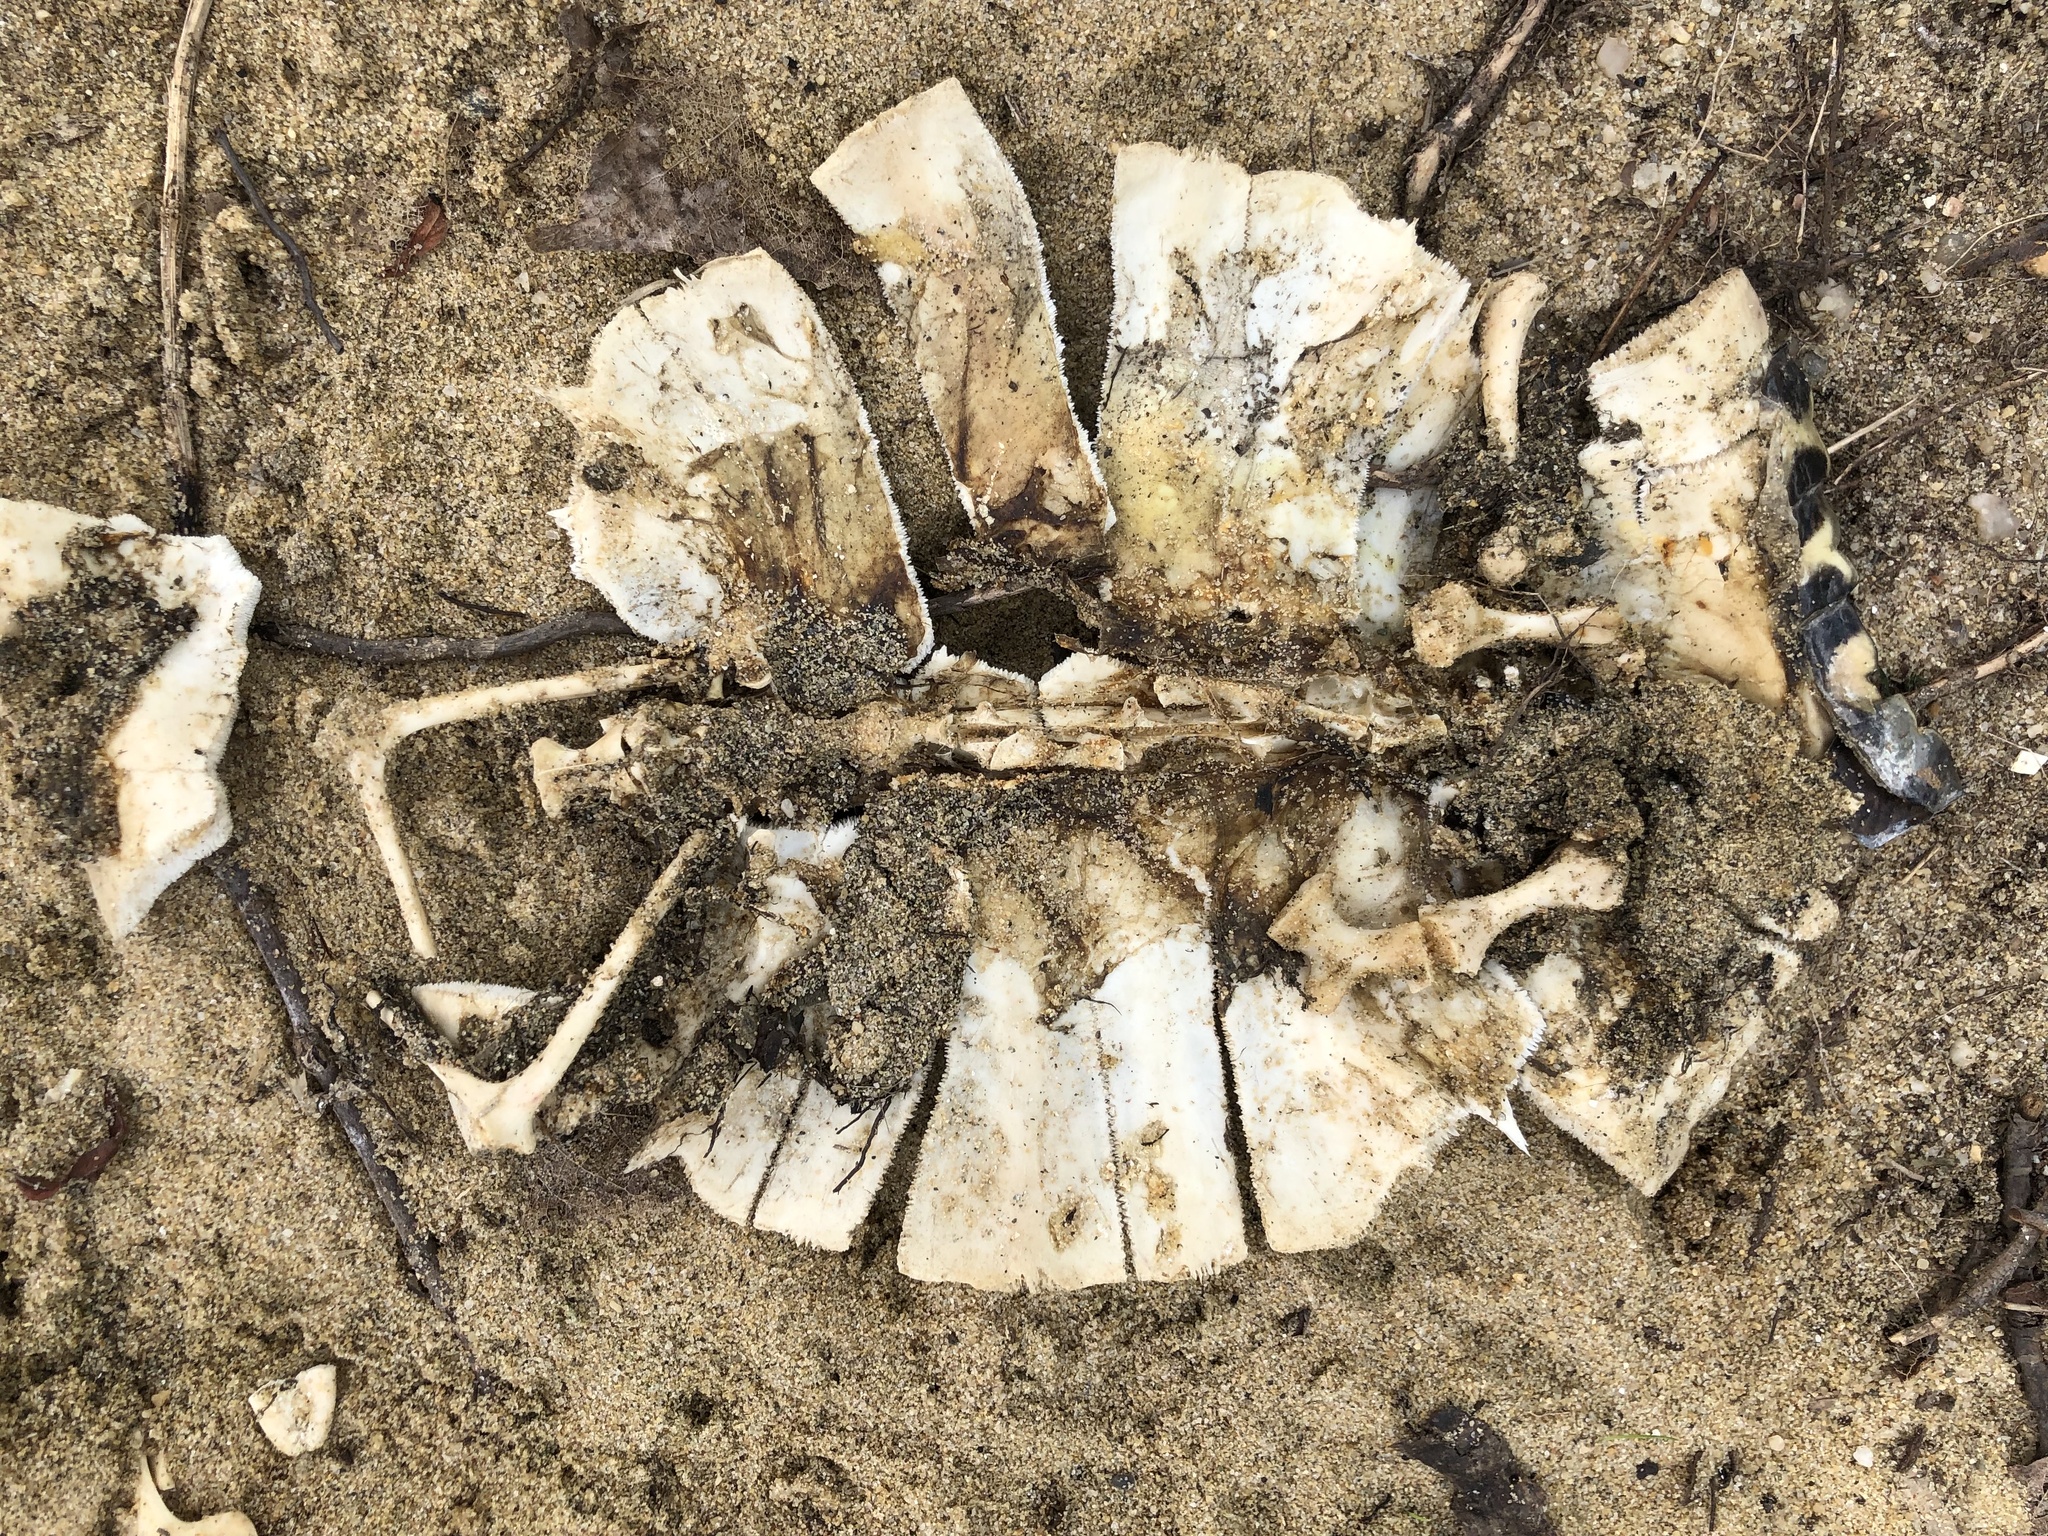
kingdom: Animalia
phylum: Chordata
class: Testudines
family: Emydidae
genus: Trachemys
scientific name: Trachemys scripta
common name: Slider
